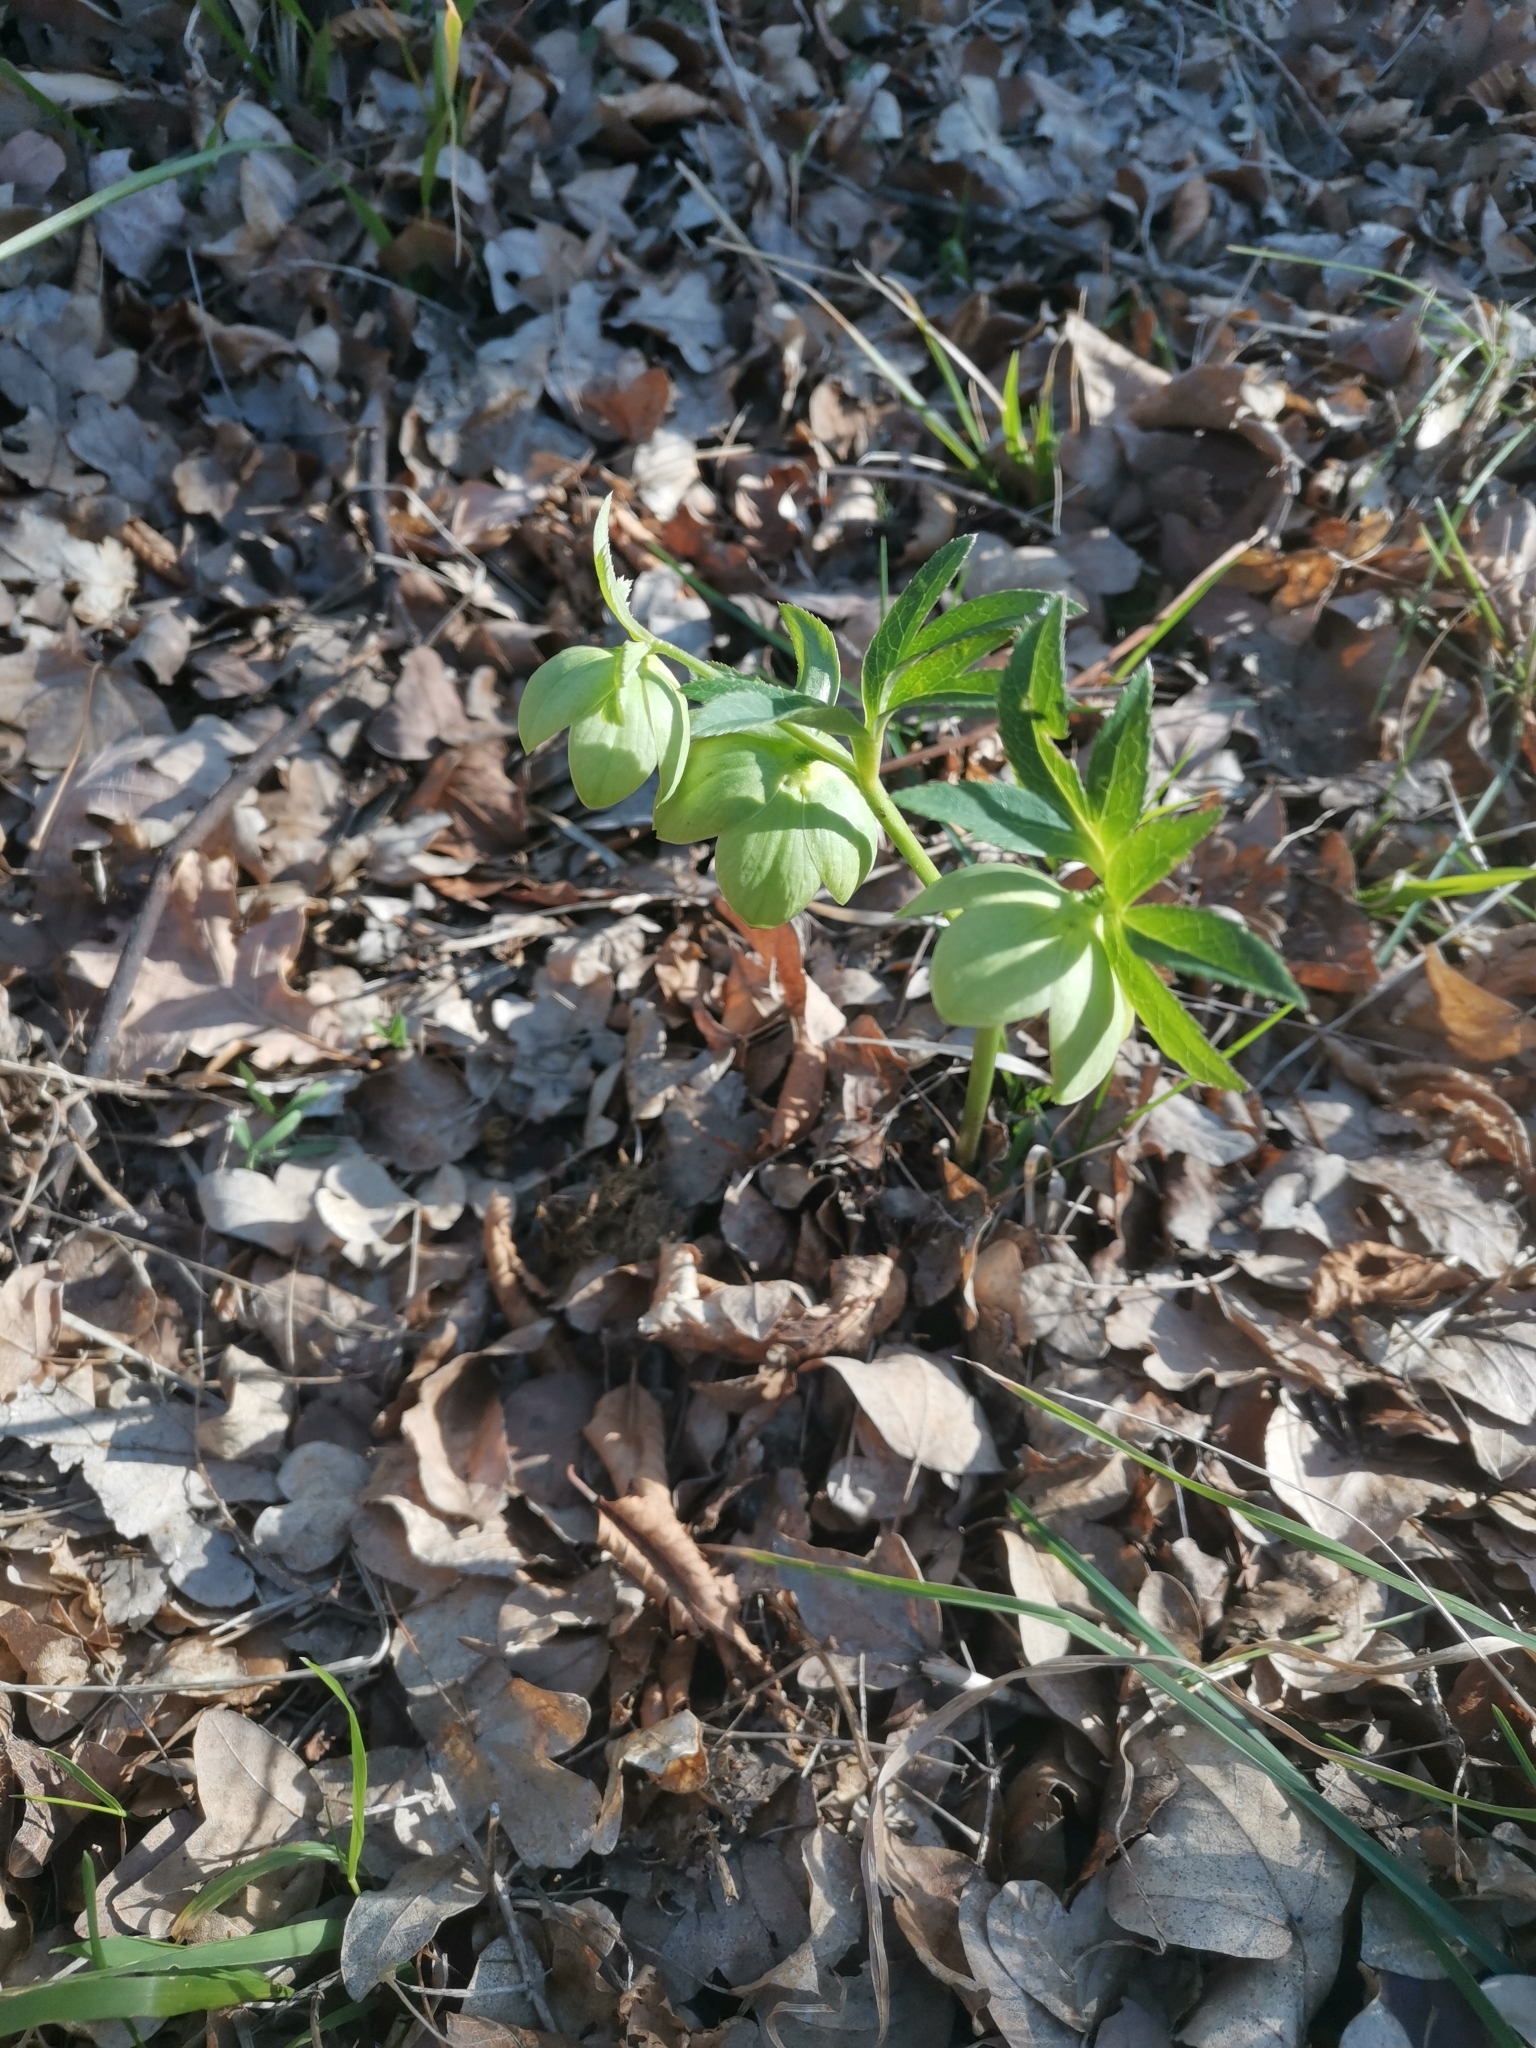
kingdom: Plantae
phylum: Tracheophyta
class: Magnoliopsida
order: Ranunculales
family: Ranunculaceae
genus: Helleborus
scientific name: Helleborus bocconei
